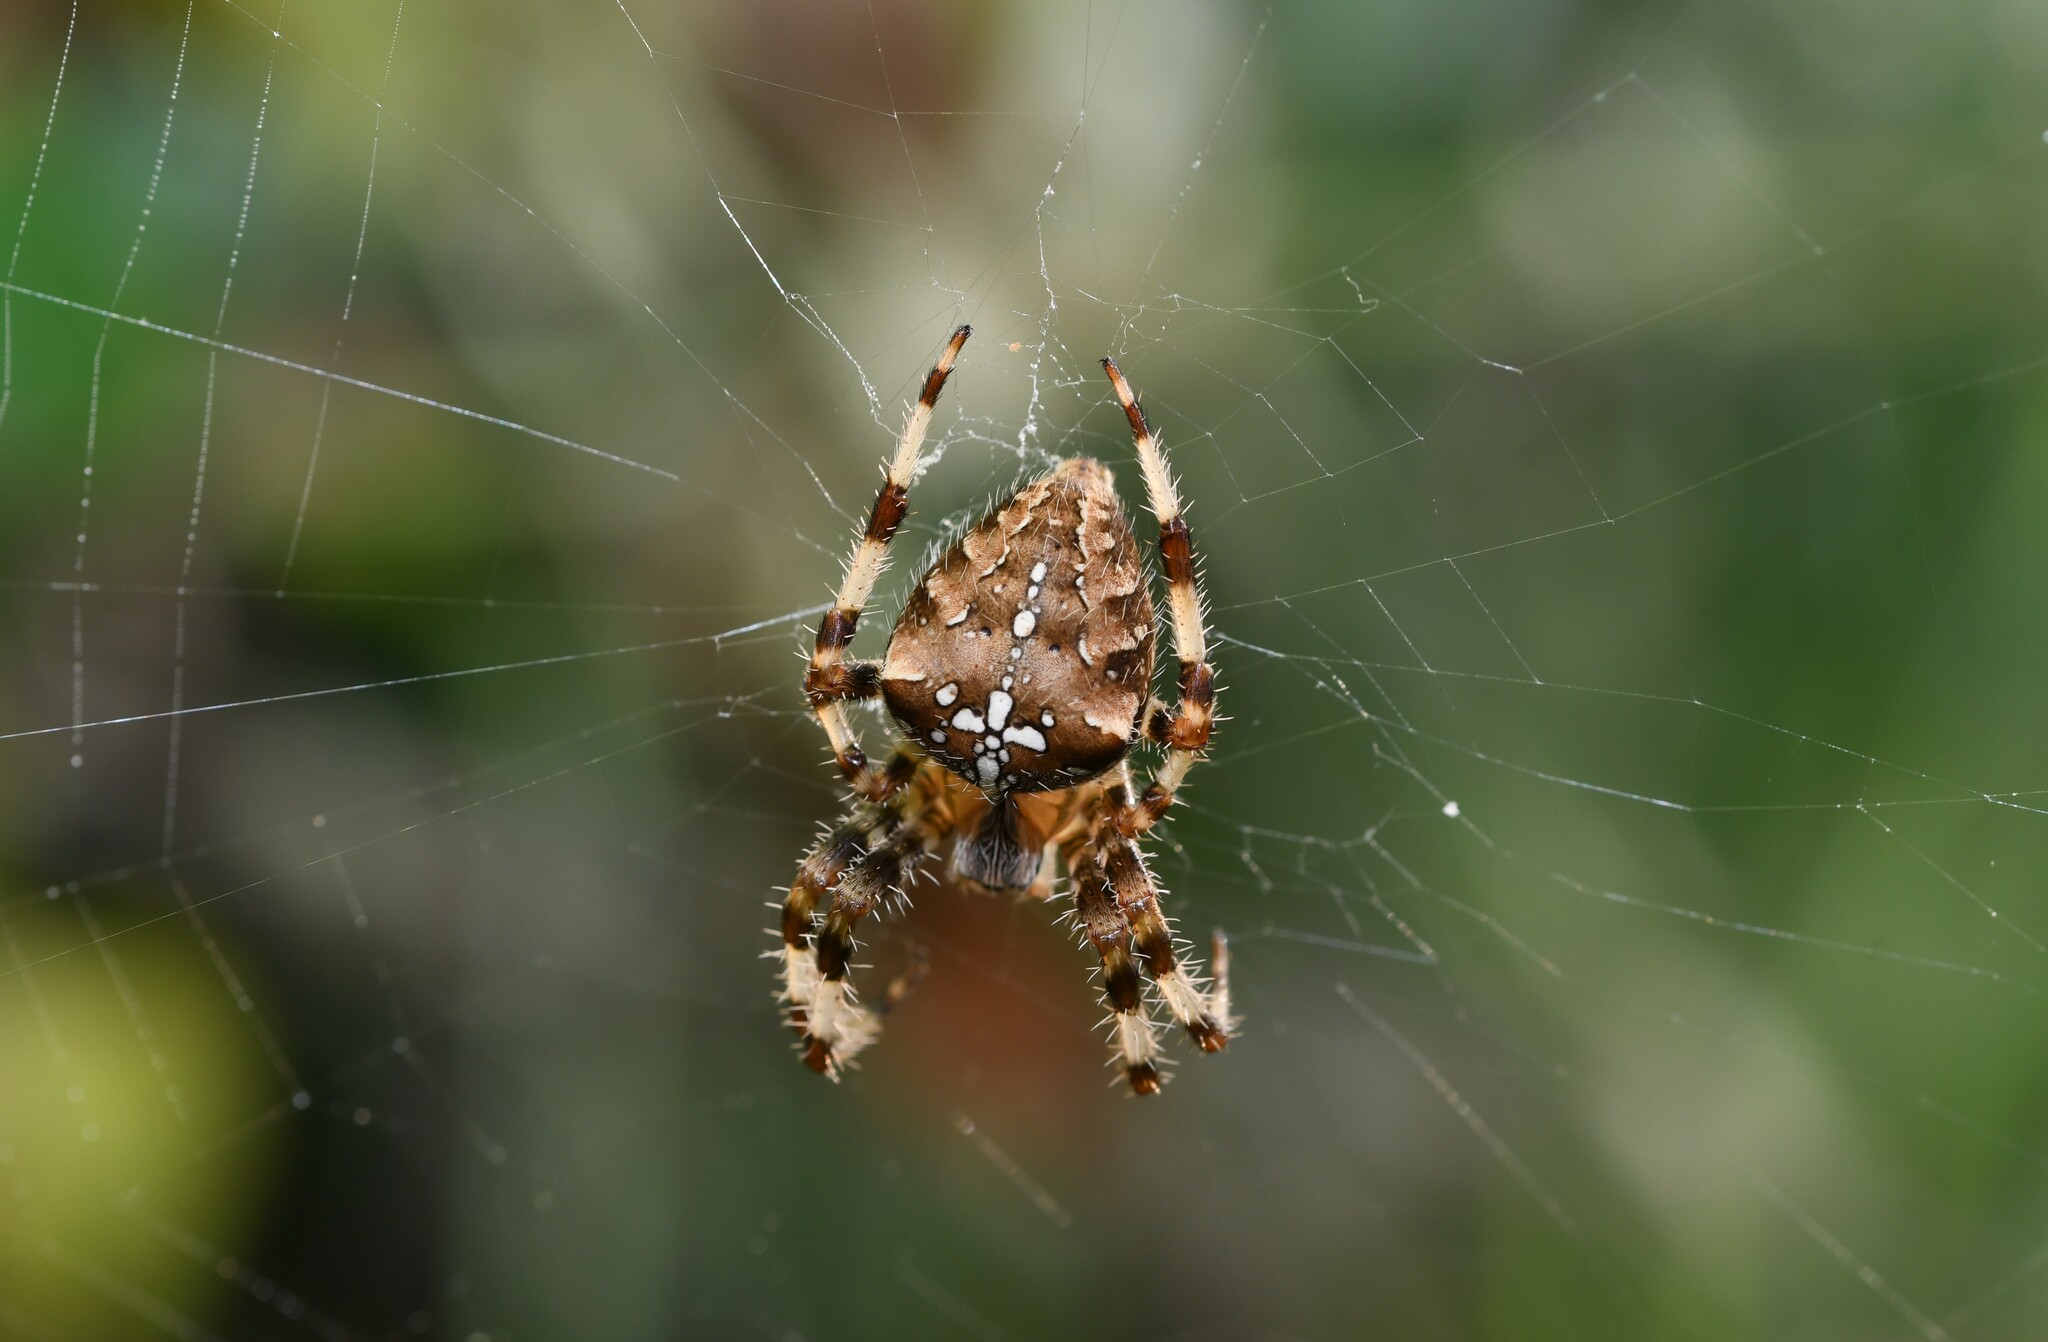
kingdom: Animalia
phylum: Arthropoda
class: Arachnida
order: Araneae
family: Araneidae
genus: Araneus
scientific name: Araneus diadematus
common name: Cross orbweaver
